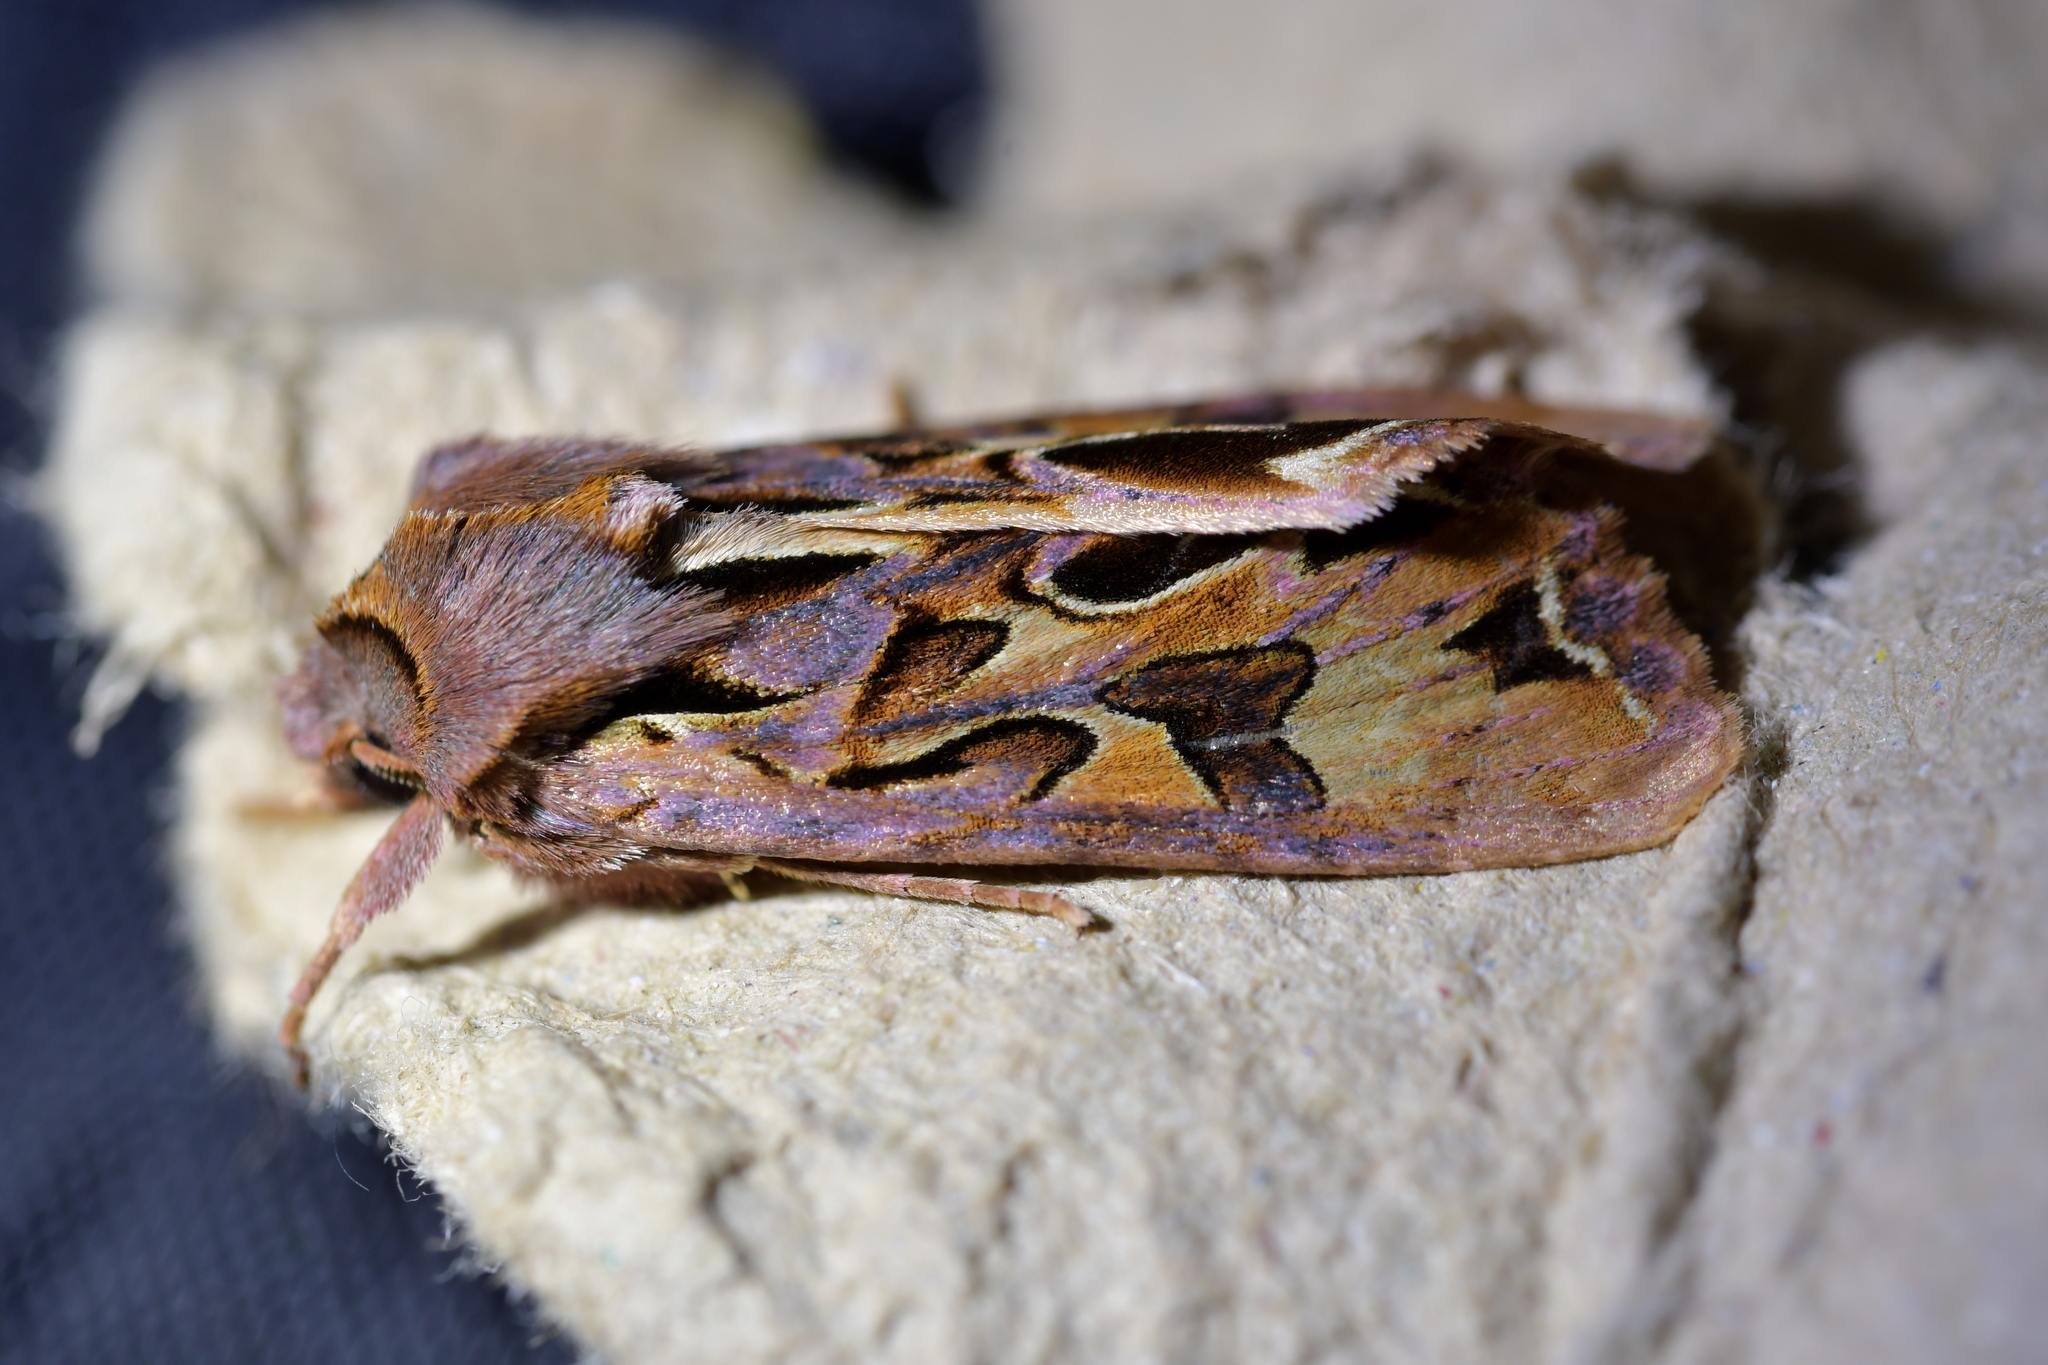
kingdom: Animalia
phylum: Arthropoda
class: Insecta
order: Lepidoptera
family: Noctuidae
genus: Ichneutica
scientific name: Ichneutica
